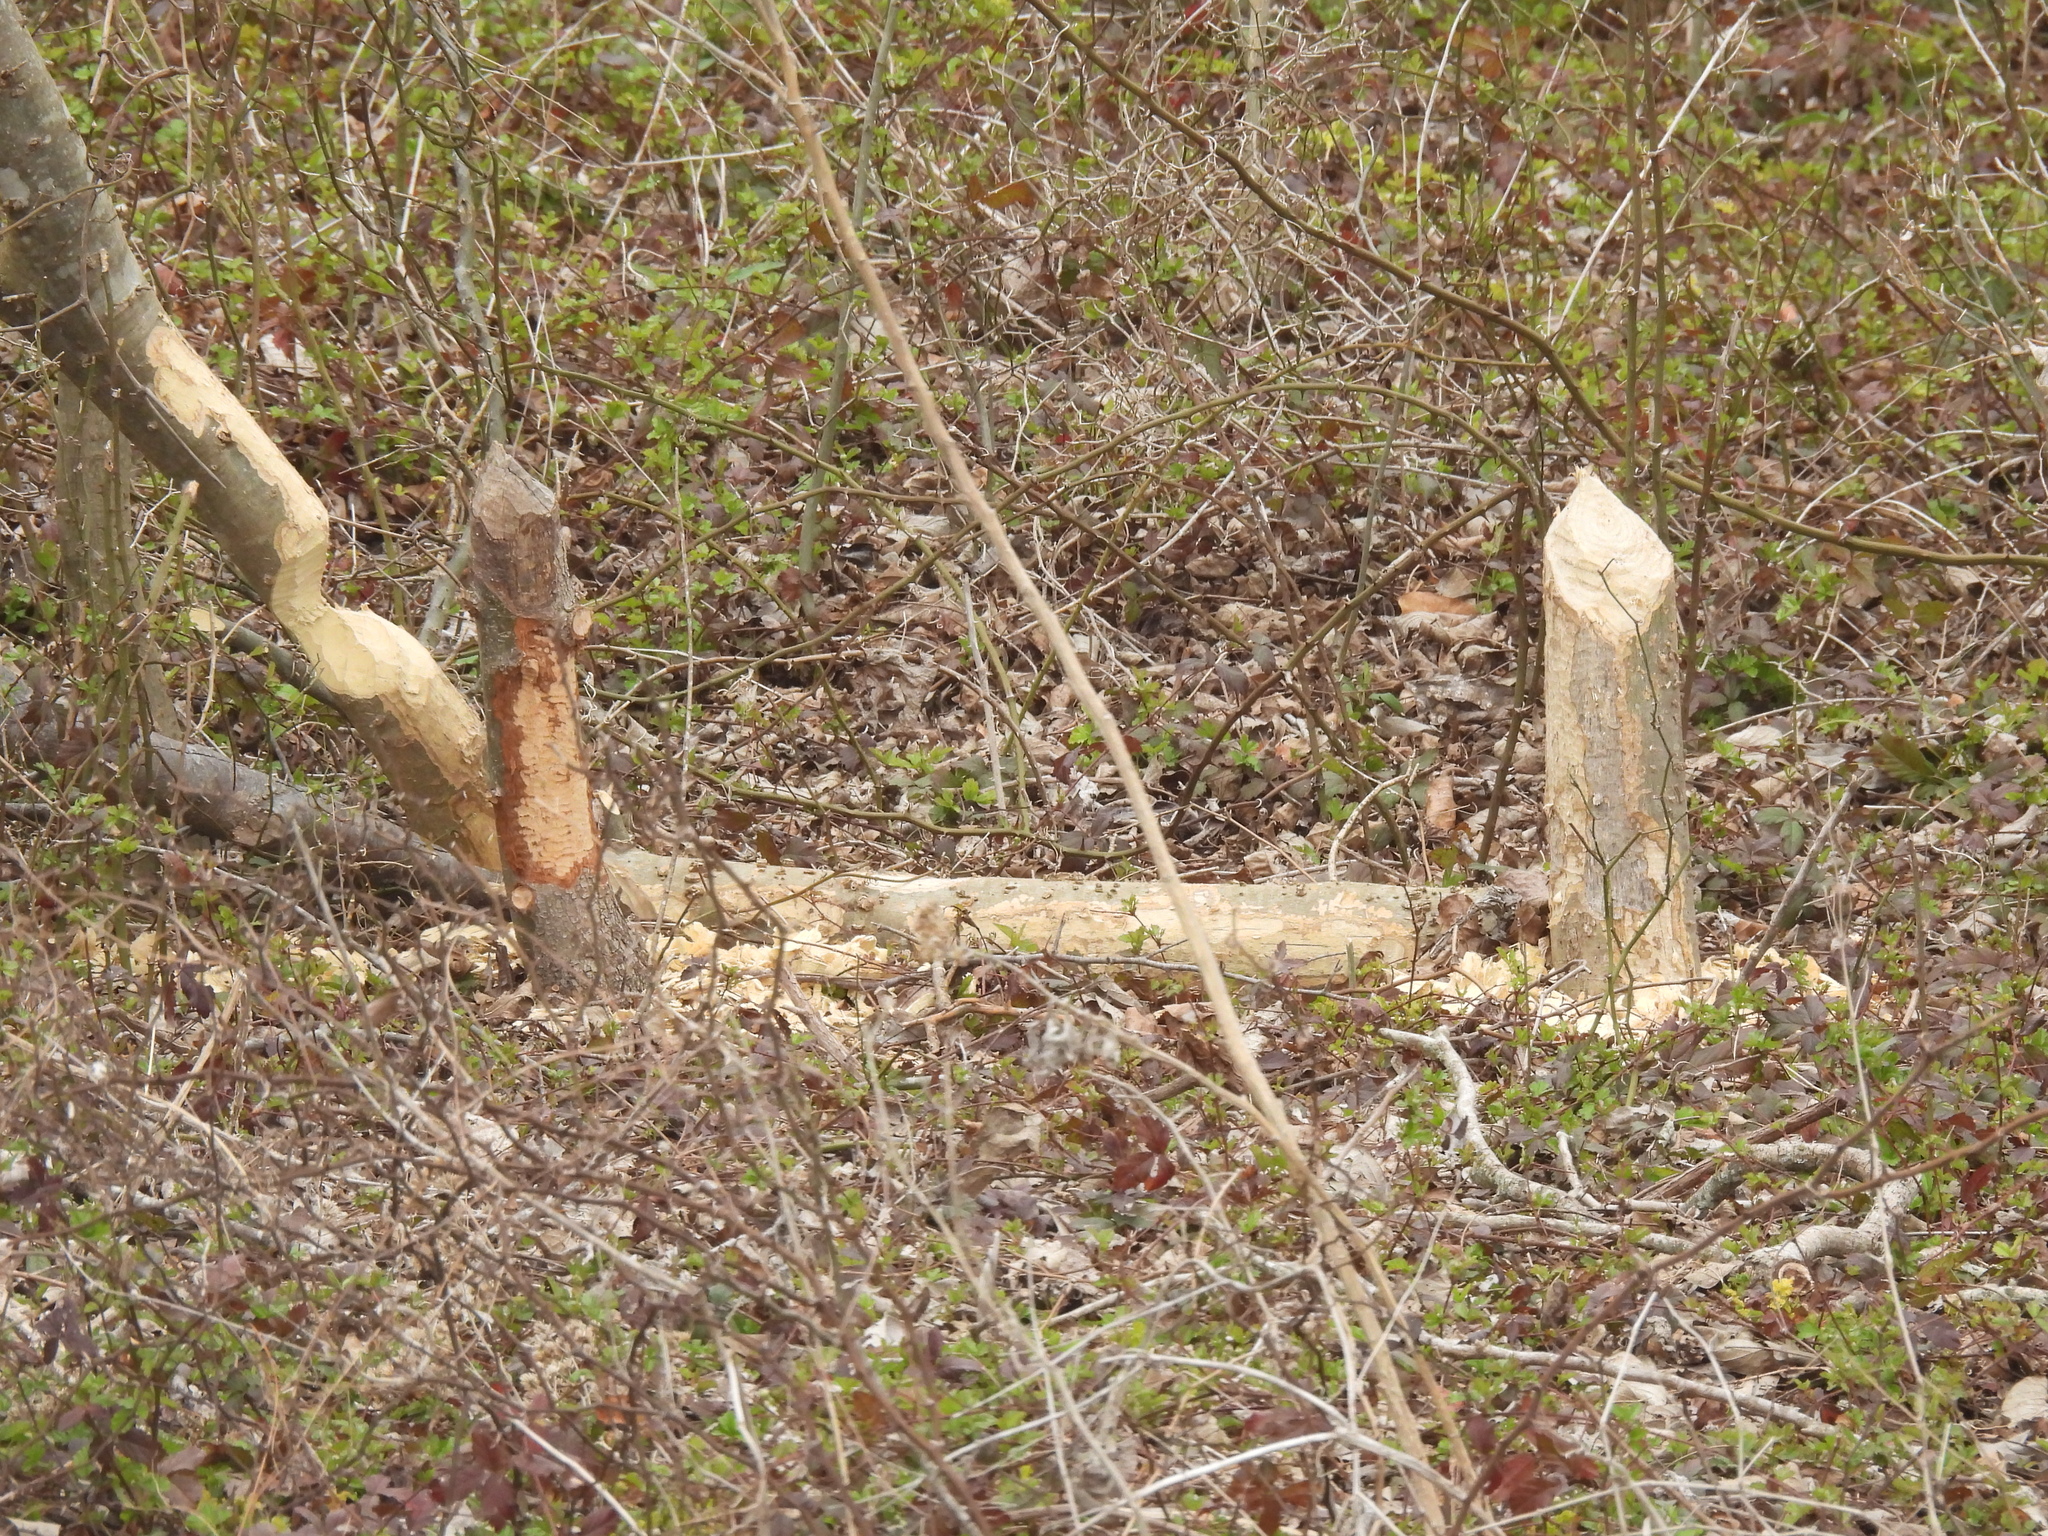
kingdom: Animalia
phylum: Chordata
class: Mammalia
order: Rodentia
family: Castoridae
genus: Castor
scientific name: Castor canadensis
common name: American beaver
